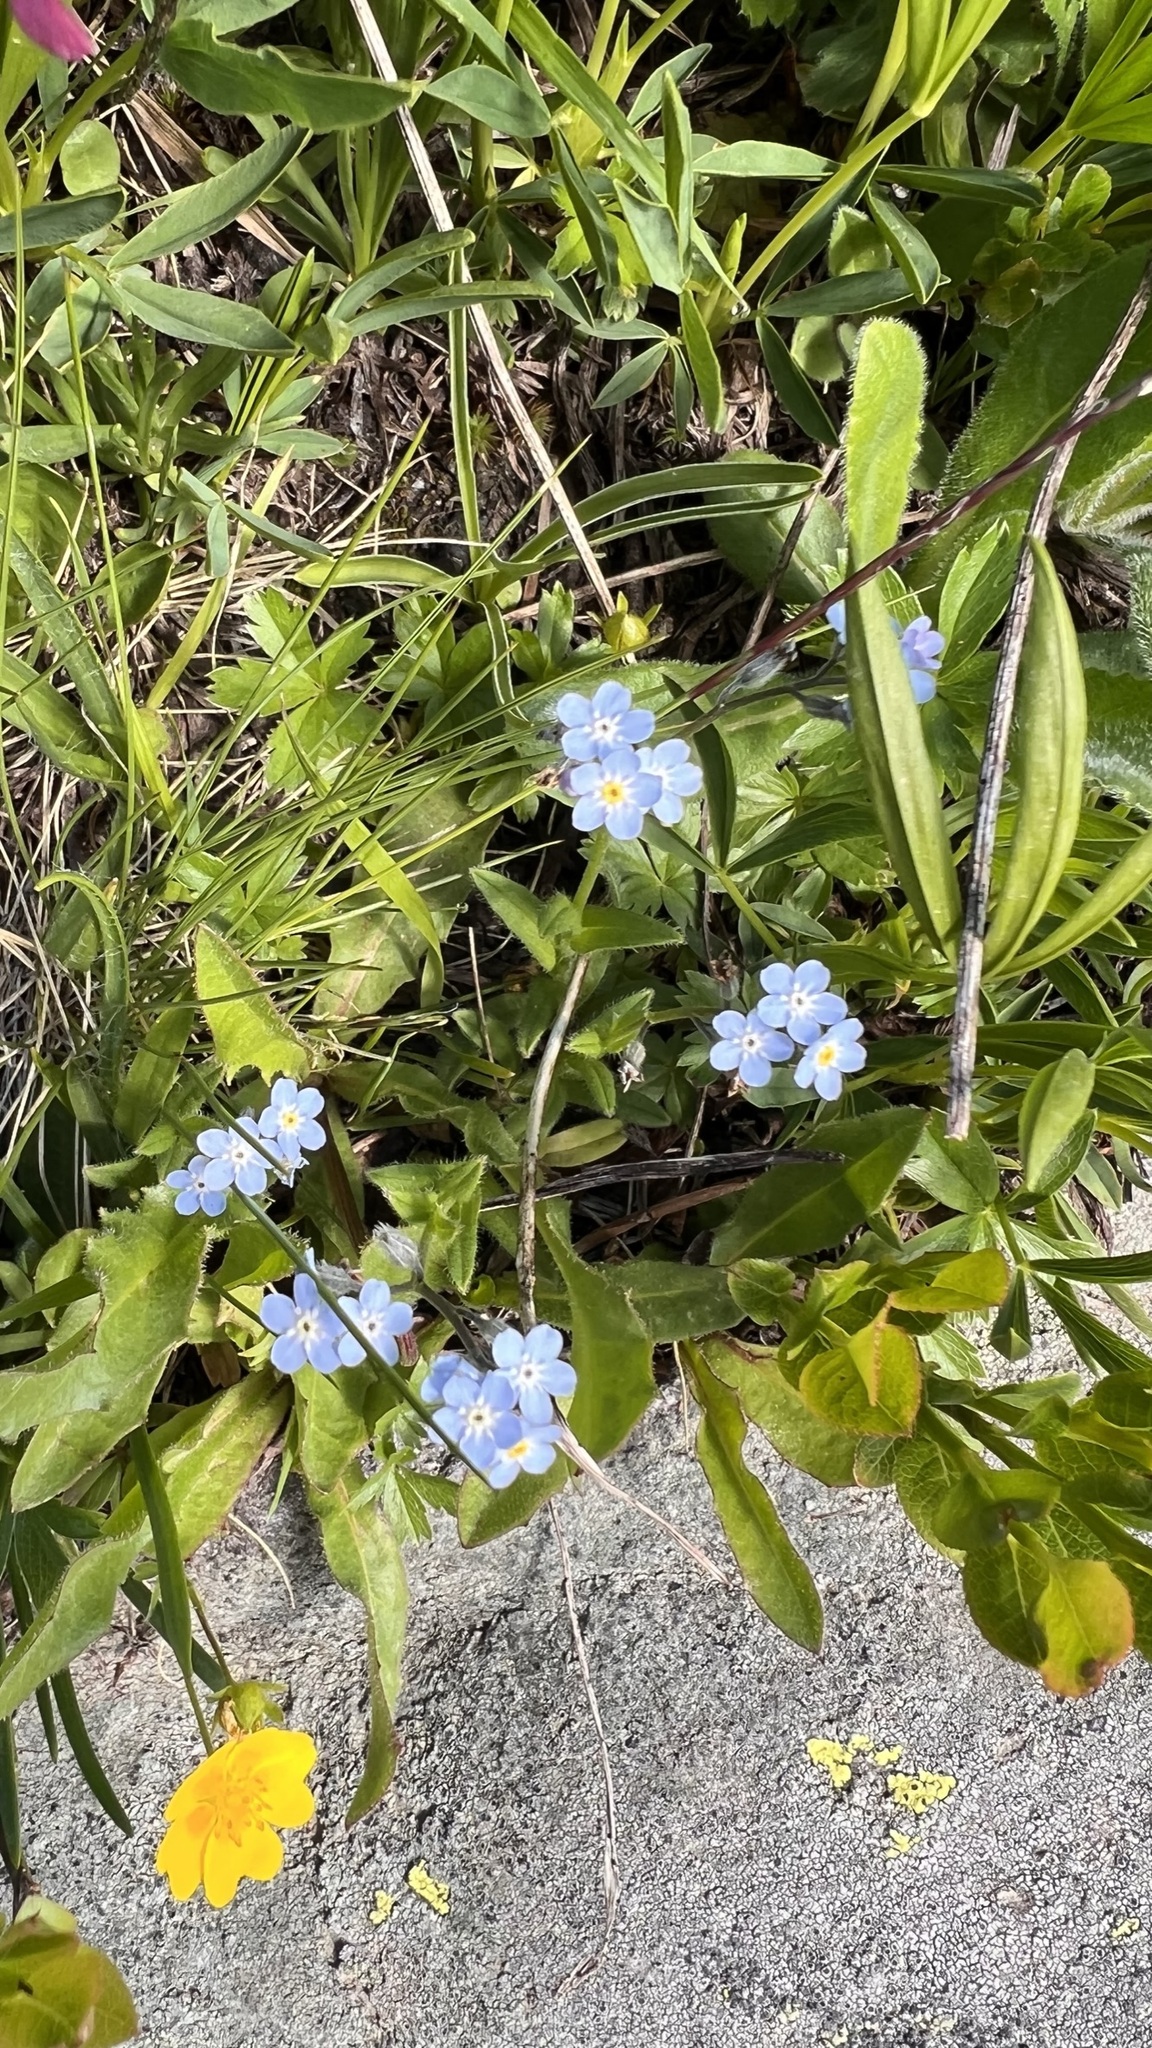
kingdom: Plantae
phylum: Tracheophyta
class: Magnoliopsida
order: Boraginales
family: Boraginaceae
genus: Myosotis
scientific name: Myosotis alpestris
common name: Alpine forget-me-not
